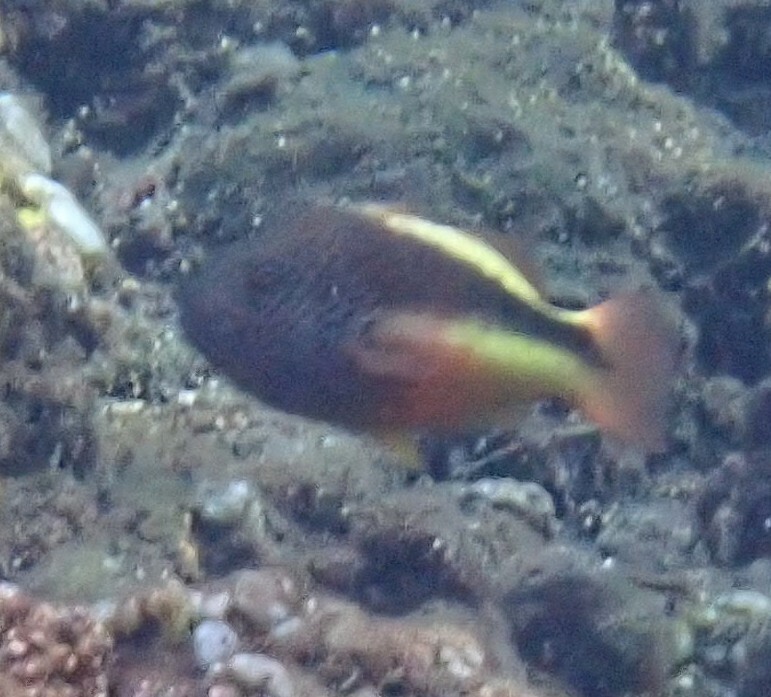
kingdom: Animalia
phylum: Chordata
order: Perciformes
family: Cirrhitidae
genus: Paracirrhites
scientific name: Paracirrhites forsteri
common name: Freckled hawkfish
